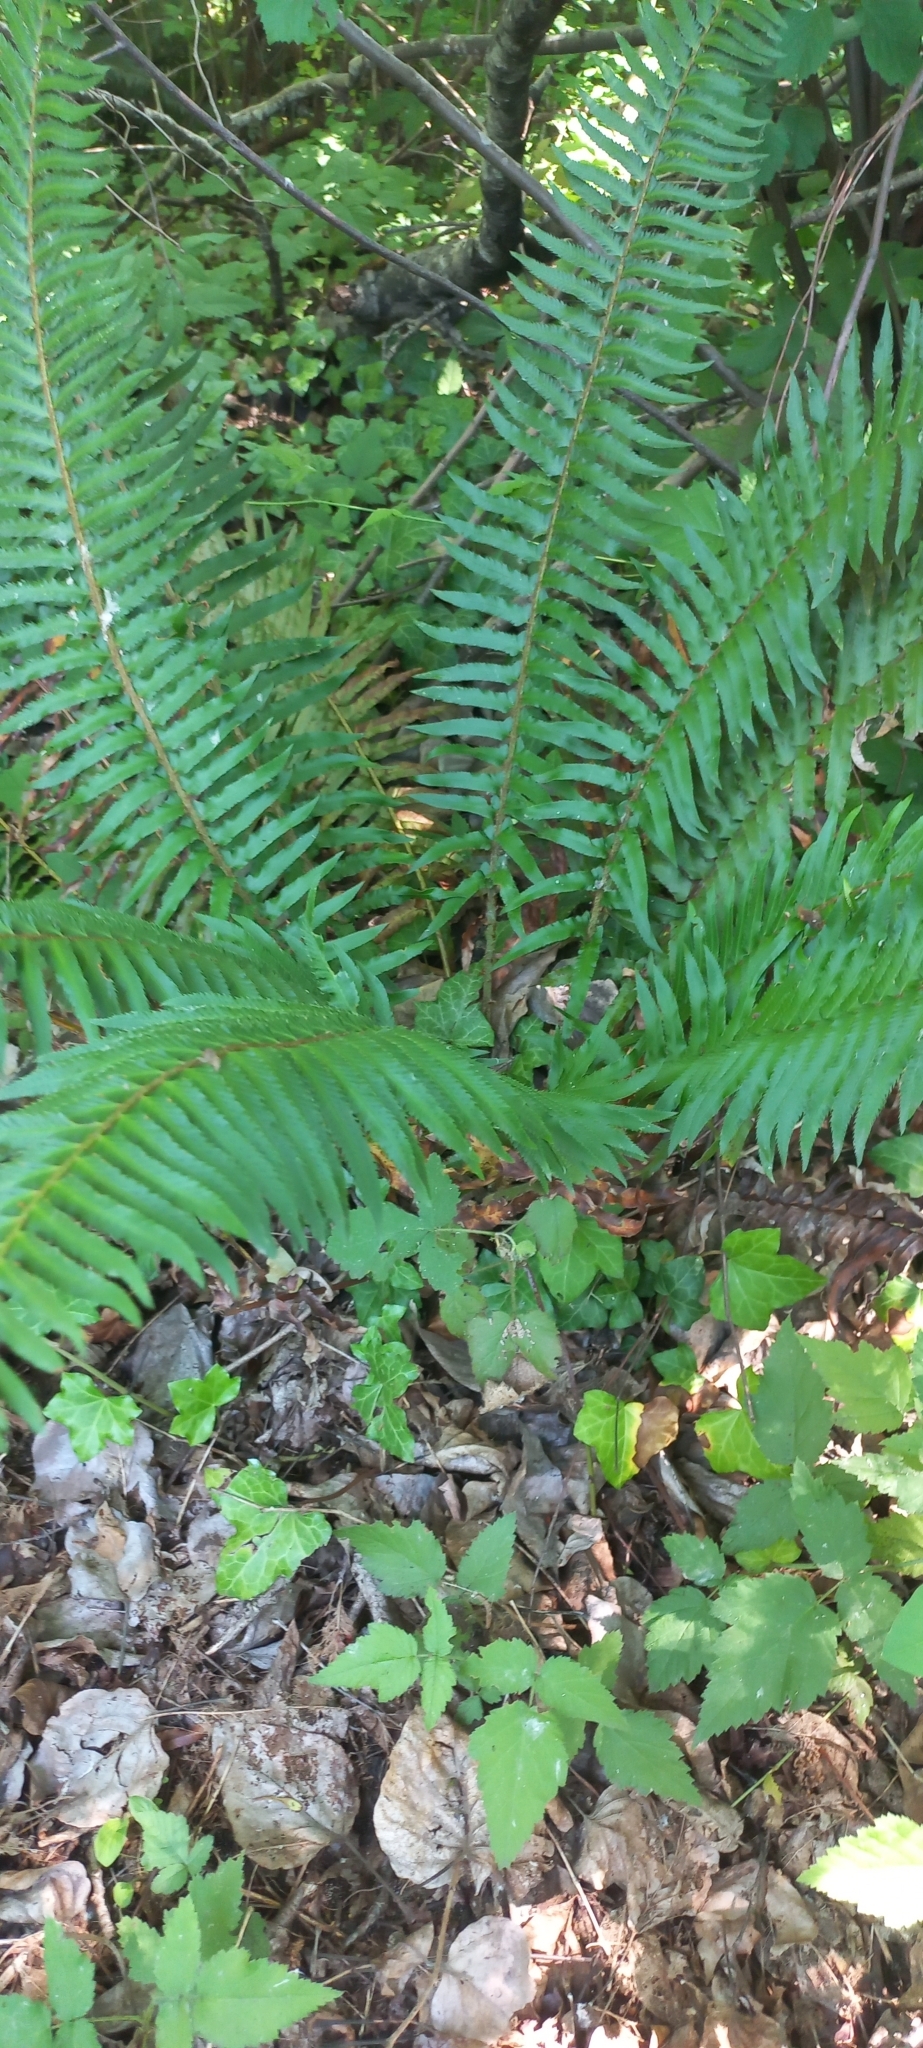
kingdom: Plantae
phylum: Tracheophyta
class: Polypodiopsida
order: Polypodiales
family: Dryopteridaceae
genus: Polystichum
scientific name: Polystichum munitum
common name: Western sword-fern
